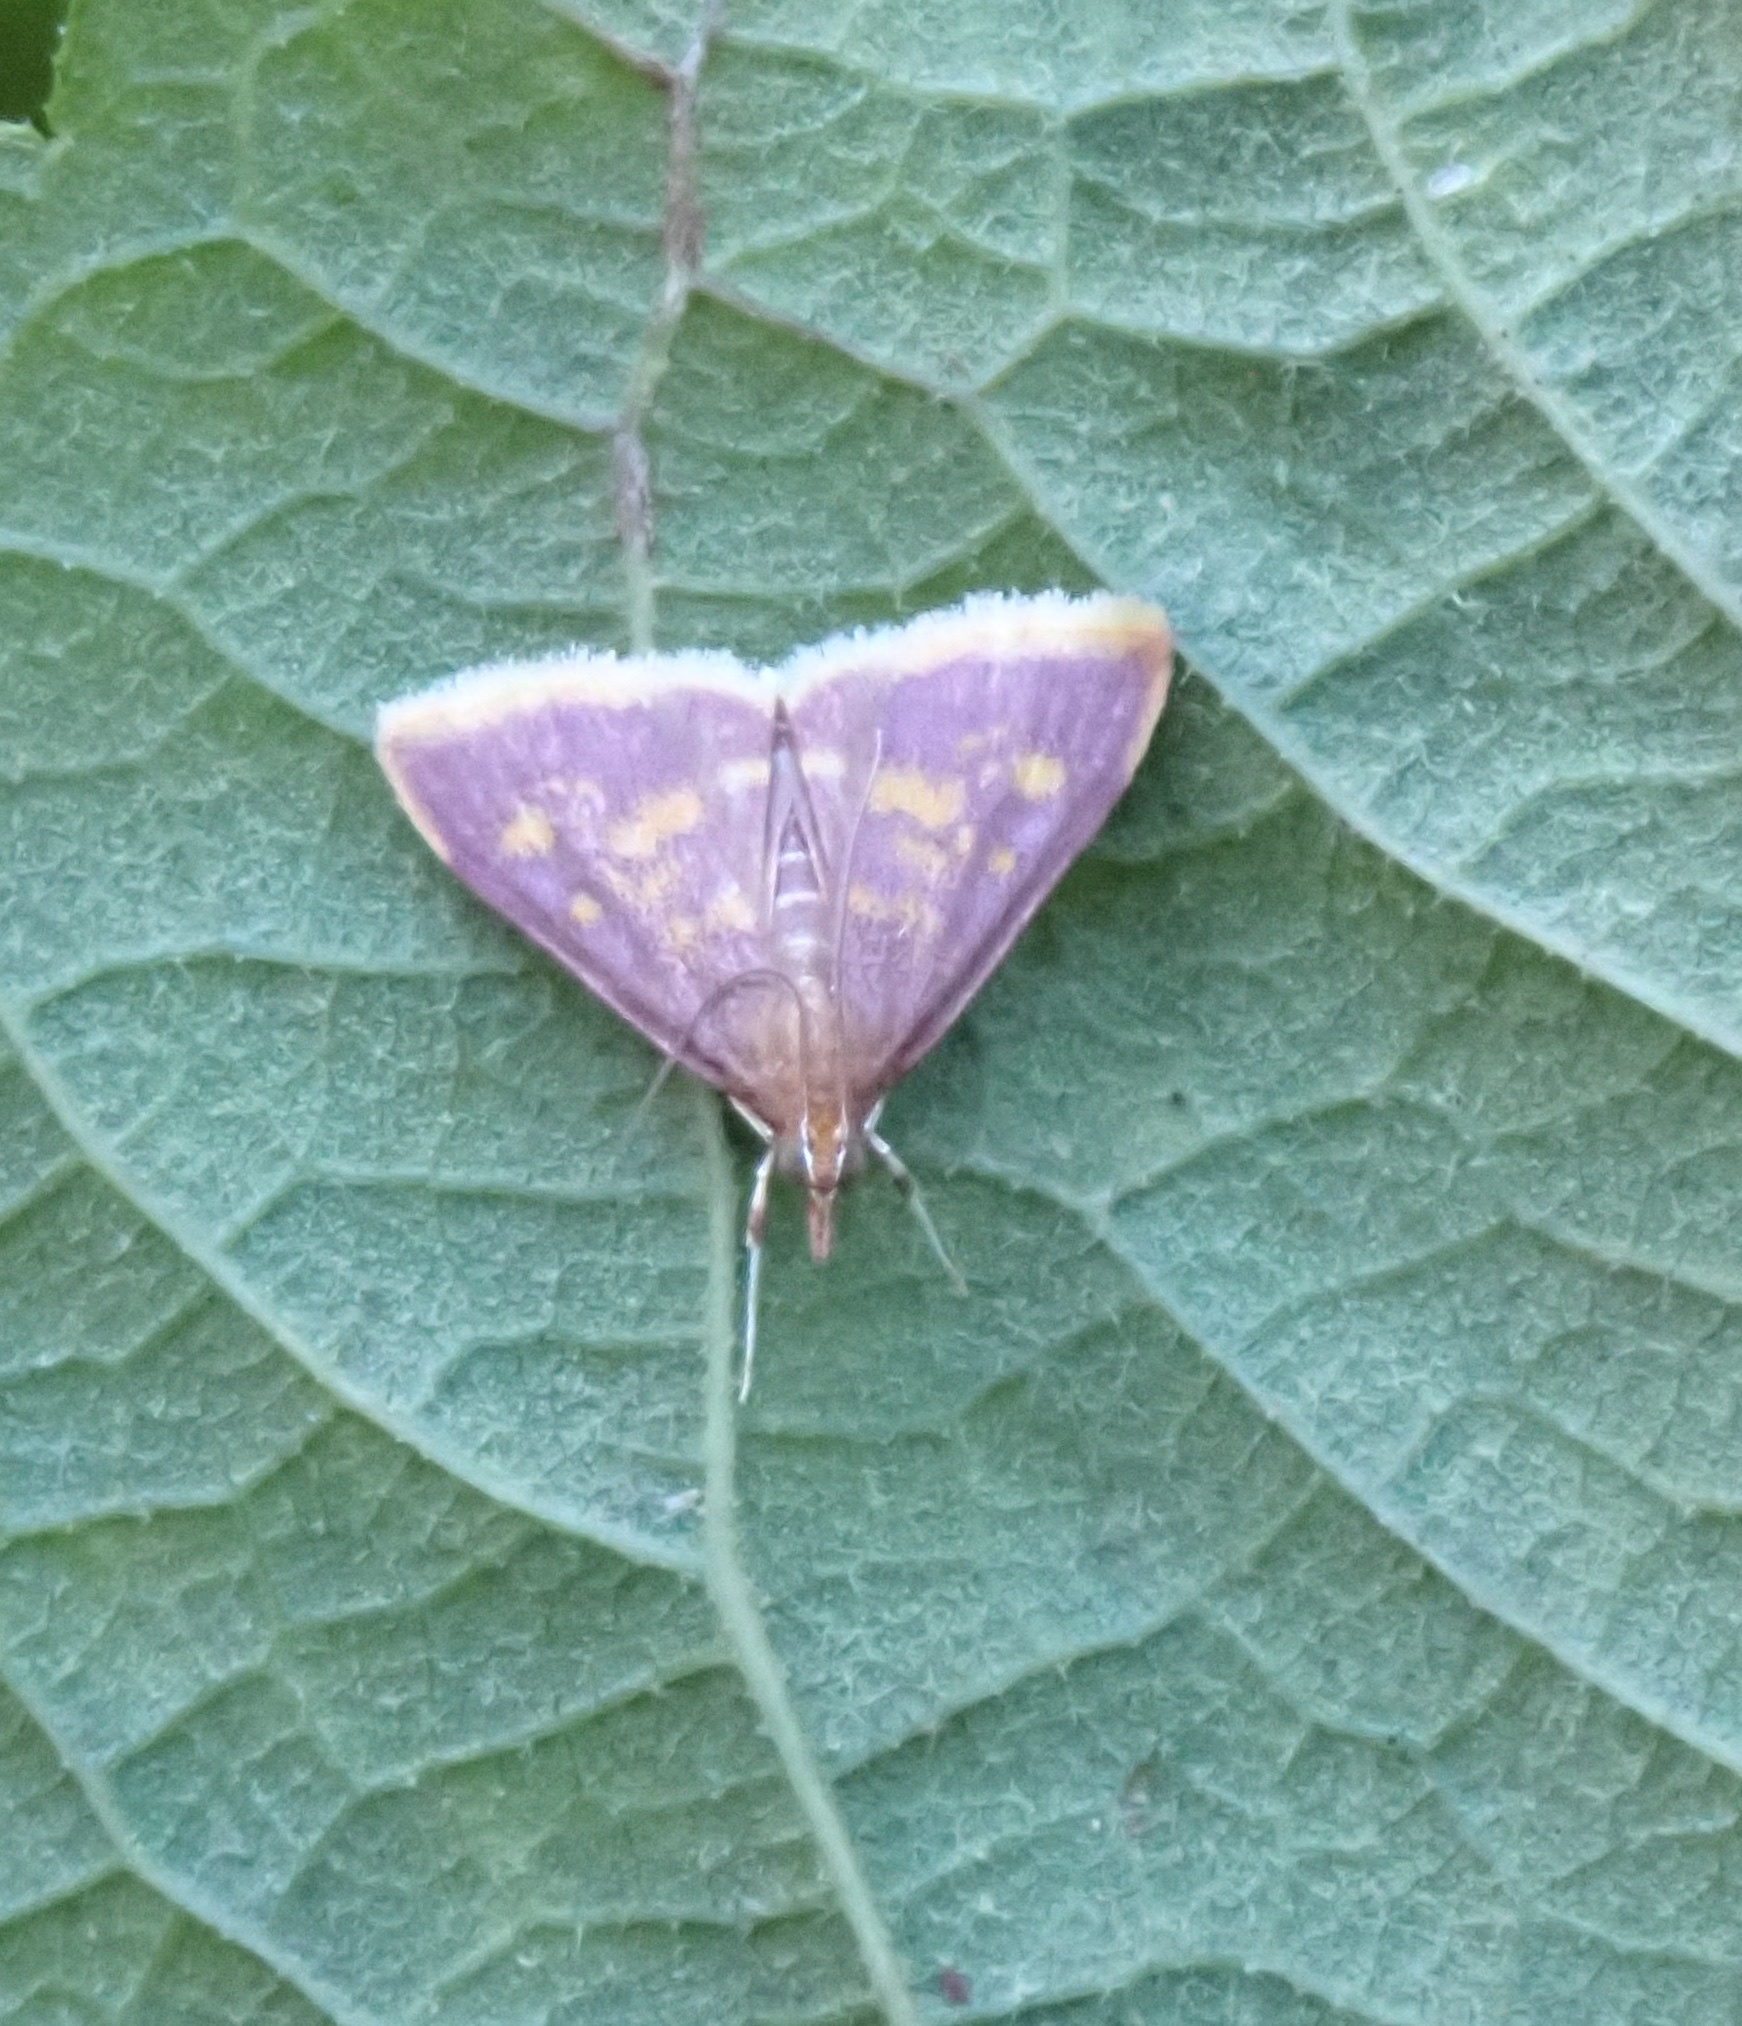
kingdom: Animalia
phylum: Arthropoda
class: Insecta
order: Lepidoptera
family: Crambidae
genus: Pyrausta
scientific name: Pyrausta acrionalis
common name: Mint-loving pyrausta moth
